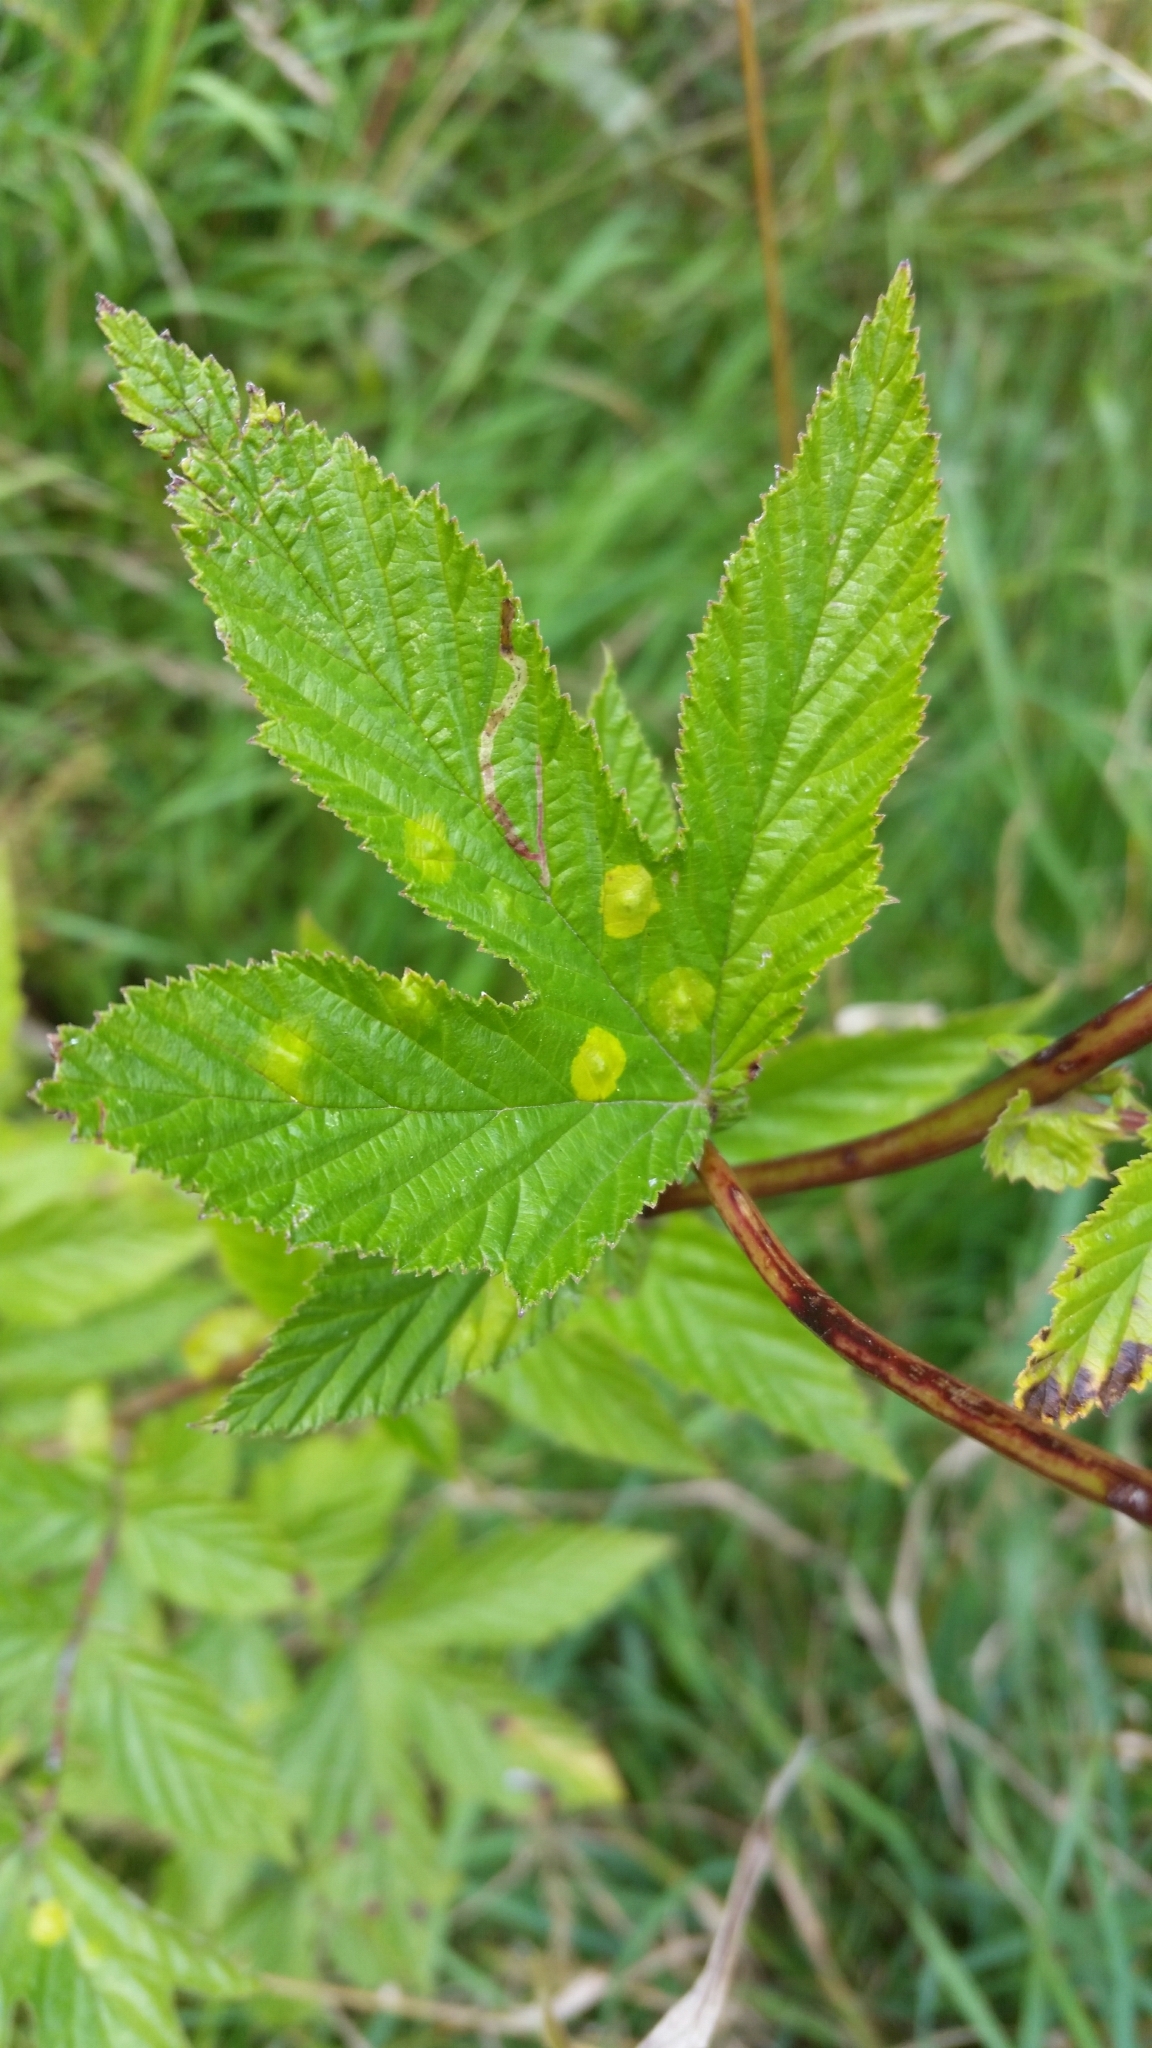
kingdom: Plantae
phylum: Tracheophyta
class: Magnoliopsida
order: Rosales
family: Rosaceae
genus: Filipendula
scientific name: Filipendula ulmaria
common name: Meadowsweet
